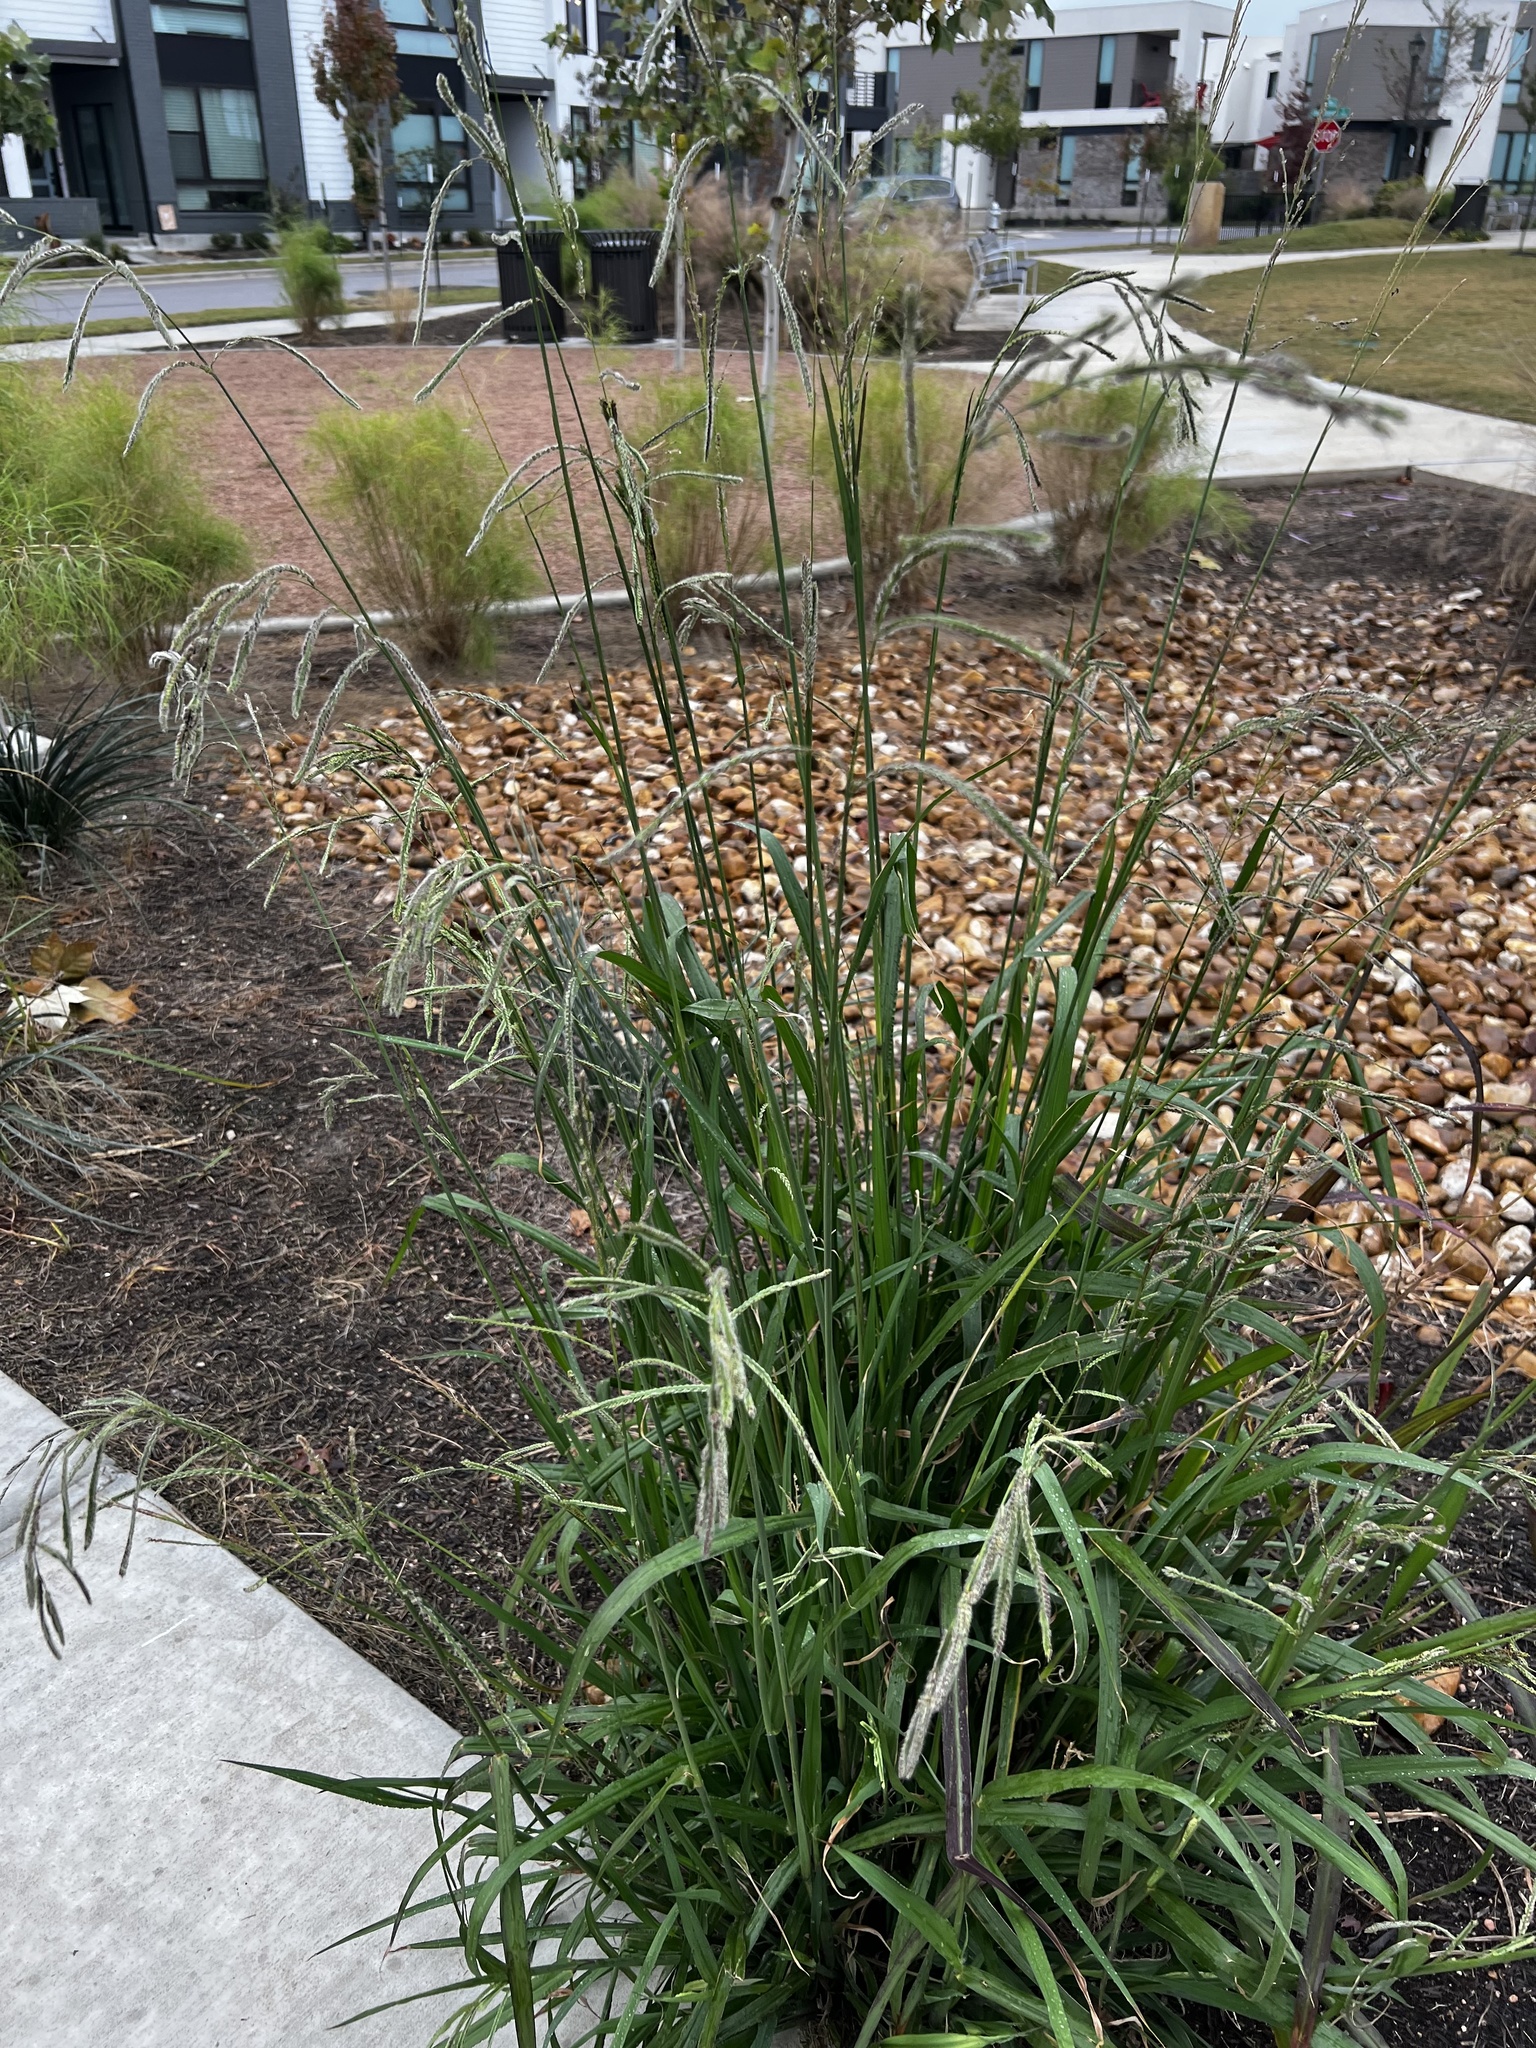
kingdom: Plantae
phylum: Tracheophyta
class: Liliopsida
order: Poales
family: Poaceae
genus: Paspalum
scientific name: Paspalum urvillei
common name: Vasey's grass
